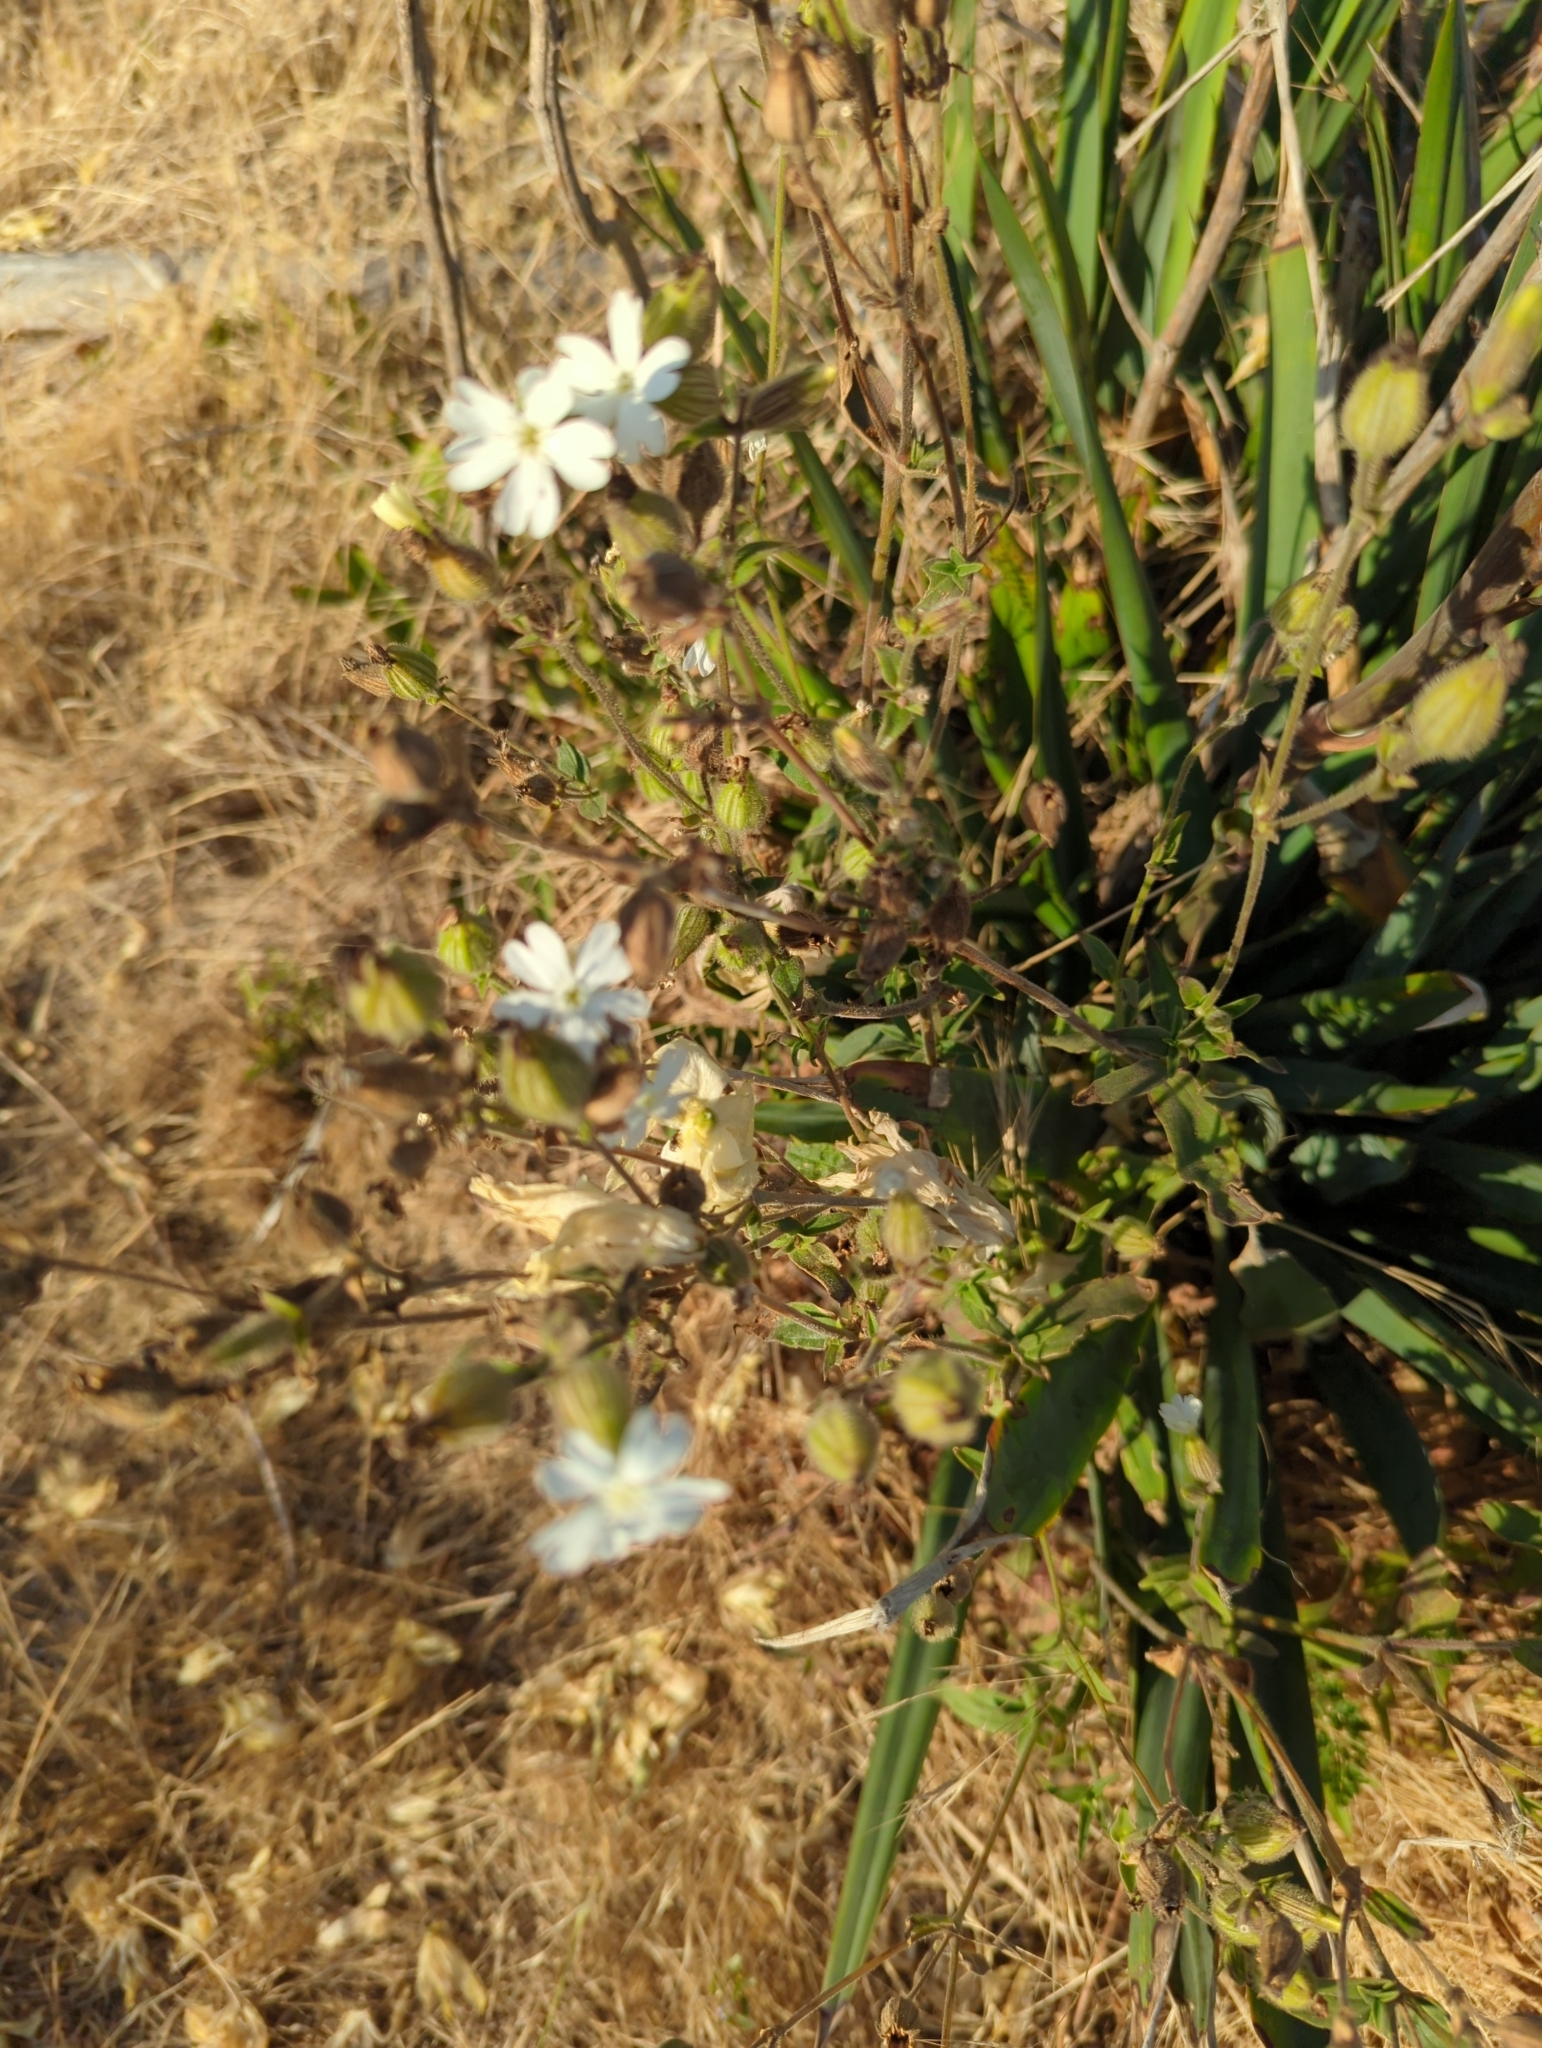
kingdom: Plantae
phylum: Tracheophyta
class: Magnoliopsida
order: Caryophyllales
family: Caryophyllaceae
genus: Silene
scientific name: Silene latifolia
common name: White campion
